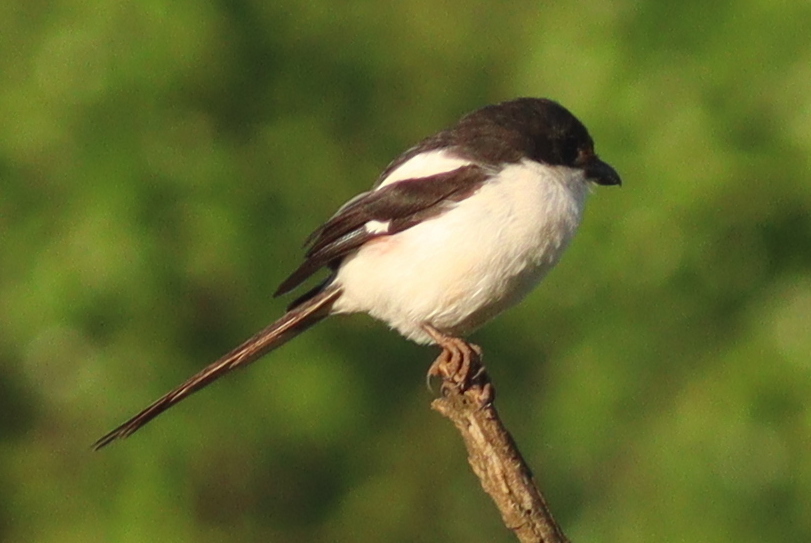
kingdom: Animalia
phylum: Chordata
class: Aves
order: Passeriformes
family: Laniidae
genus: Lanius
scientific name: Lanius humeralis
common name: Northern fiscal
